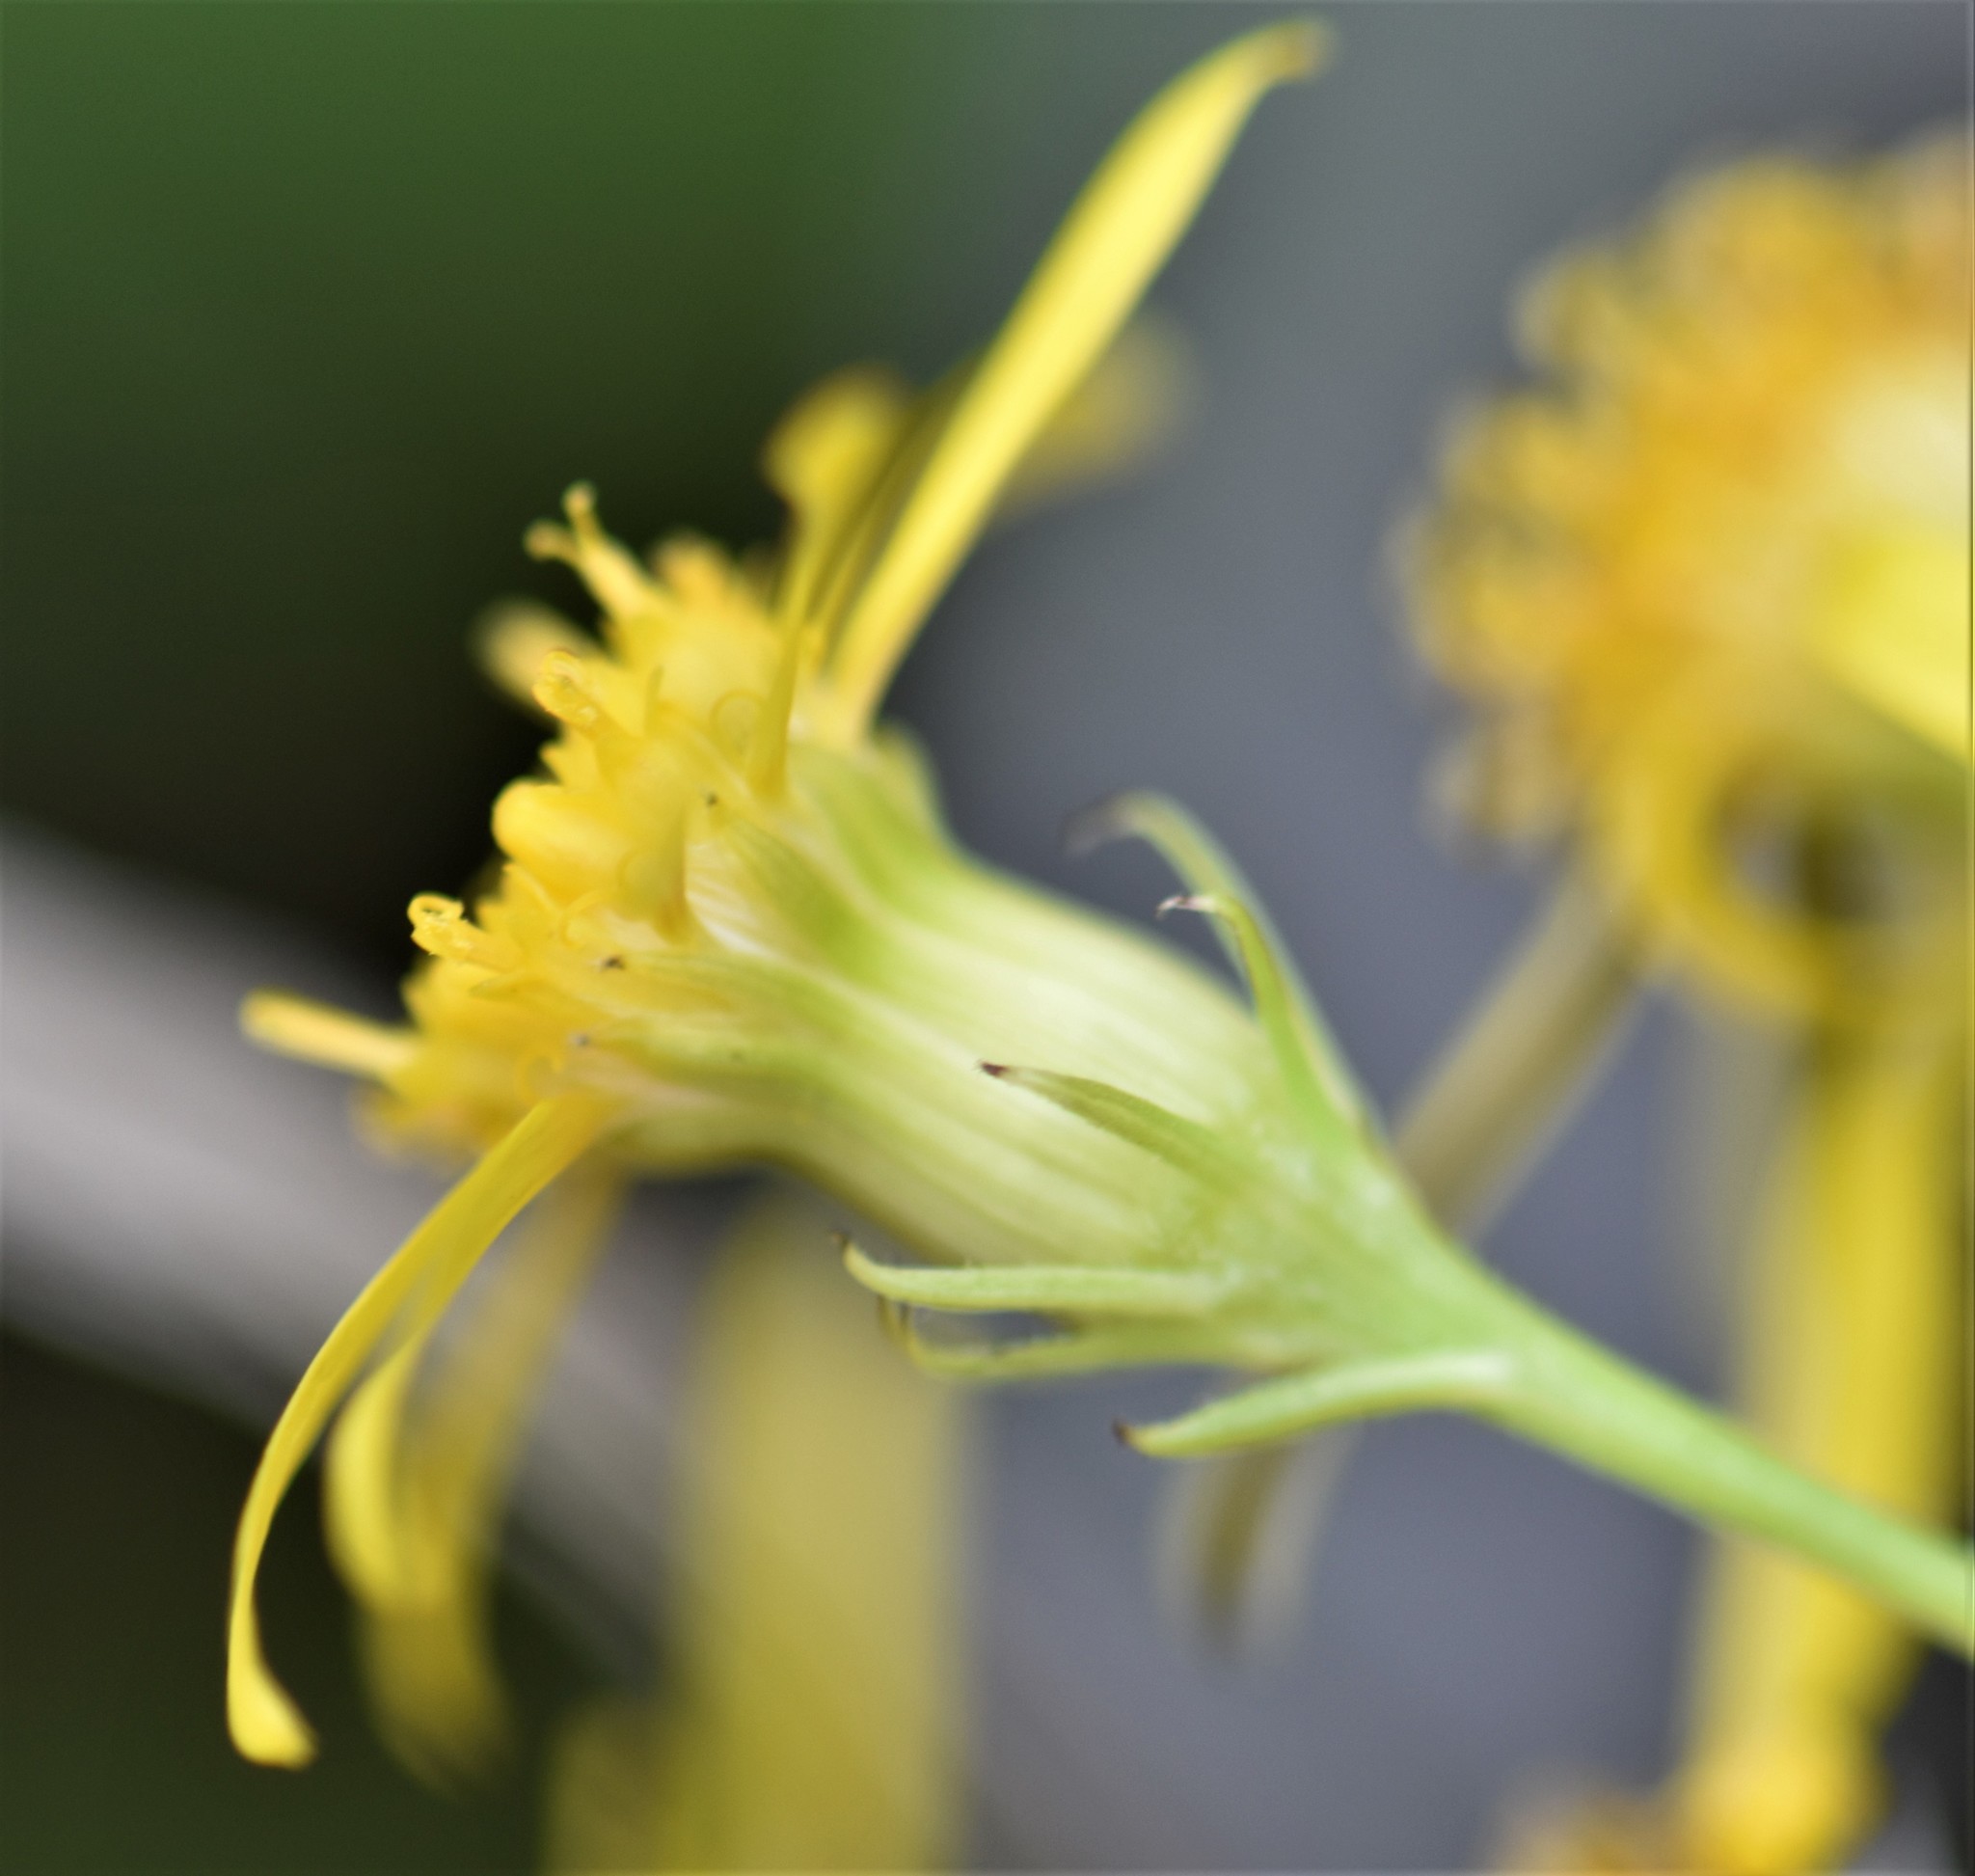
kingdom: Plantae
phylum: Tracheophyta
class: Magnoliopsida
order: Asterales
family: Asteraceae
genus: Senecio
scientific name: Senecio eremophilus
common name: Desert ragwort
